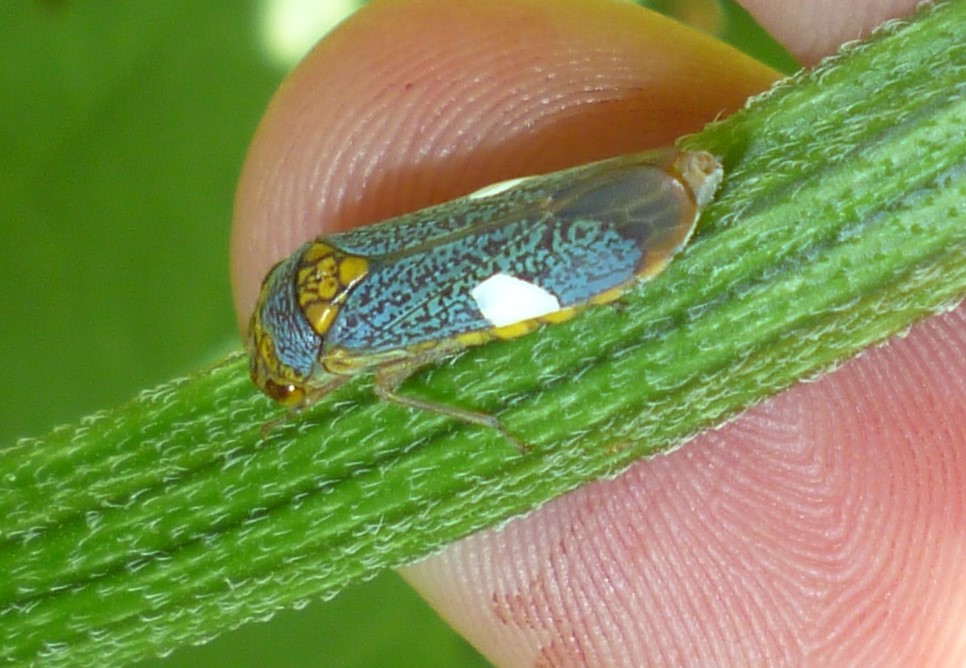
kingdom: Animalia
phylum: Arthropoda
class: Insecta
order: Hemiptera
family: Cicadellidae
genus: Oncometopia
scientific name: Oncometopia orbona
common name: Broad-headed sharpshooter
